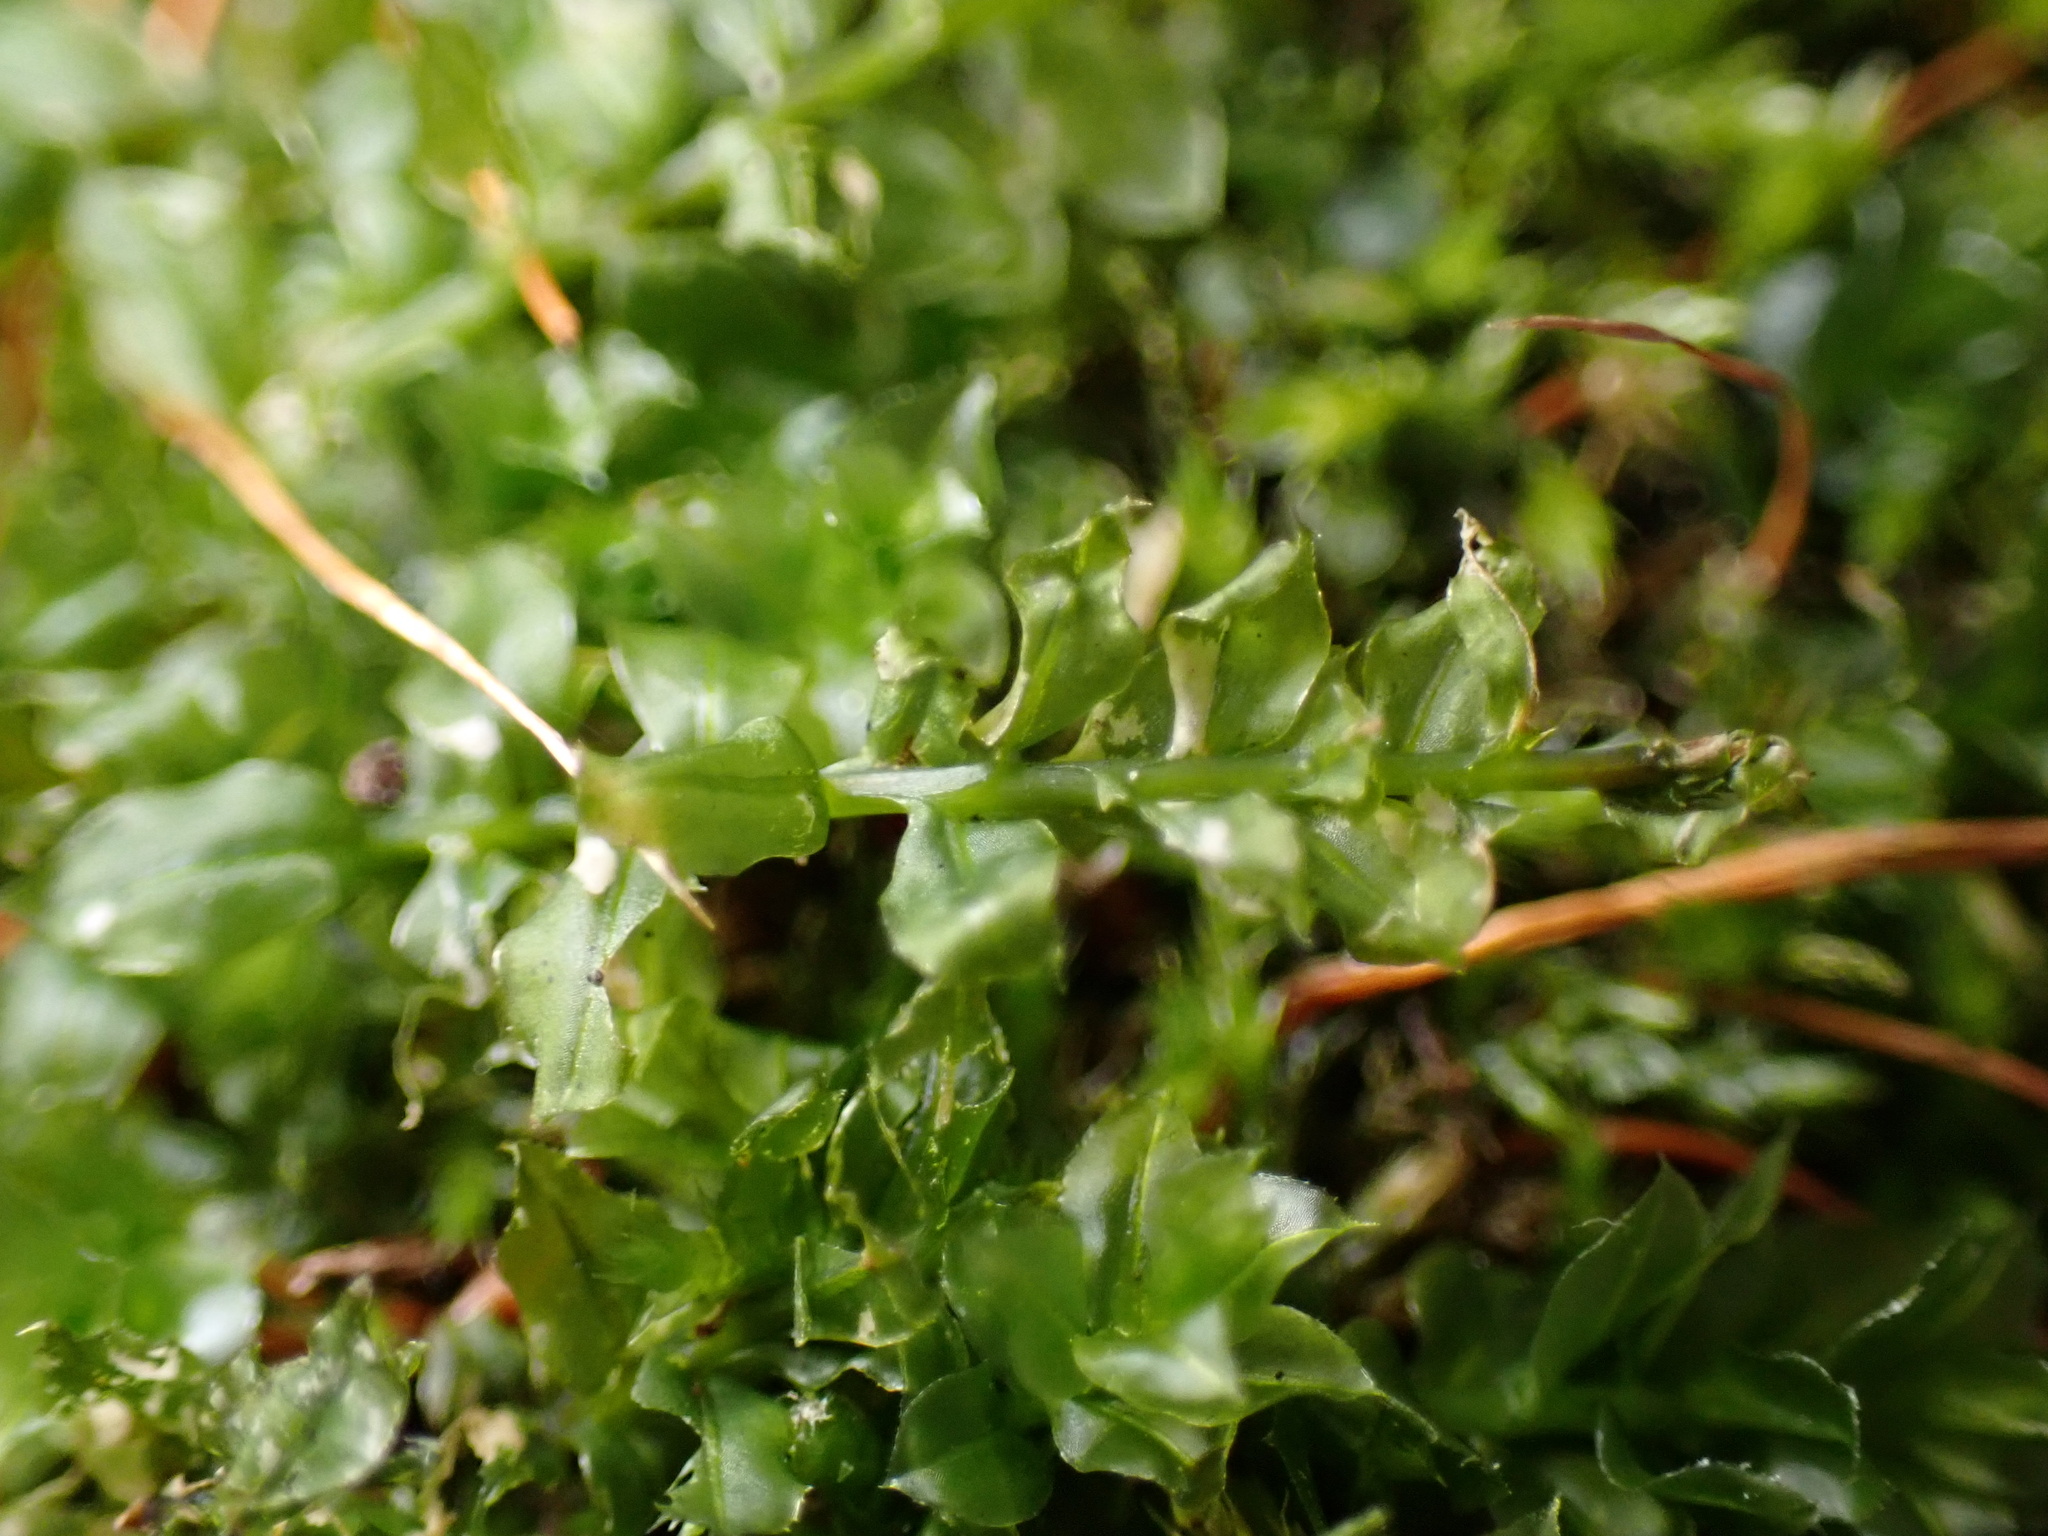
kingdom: Plantae
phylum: Bryophyta
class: Bryopsida
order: Bryales
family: Mniaceae
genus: Plagiomnium
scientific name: Plagiomnium cuspidatum
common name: Woodsy leafy moss
